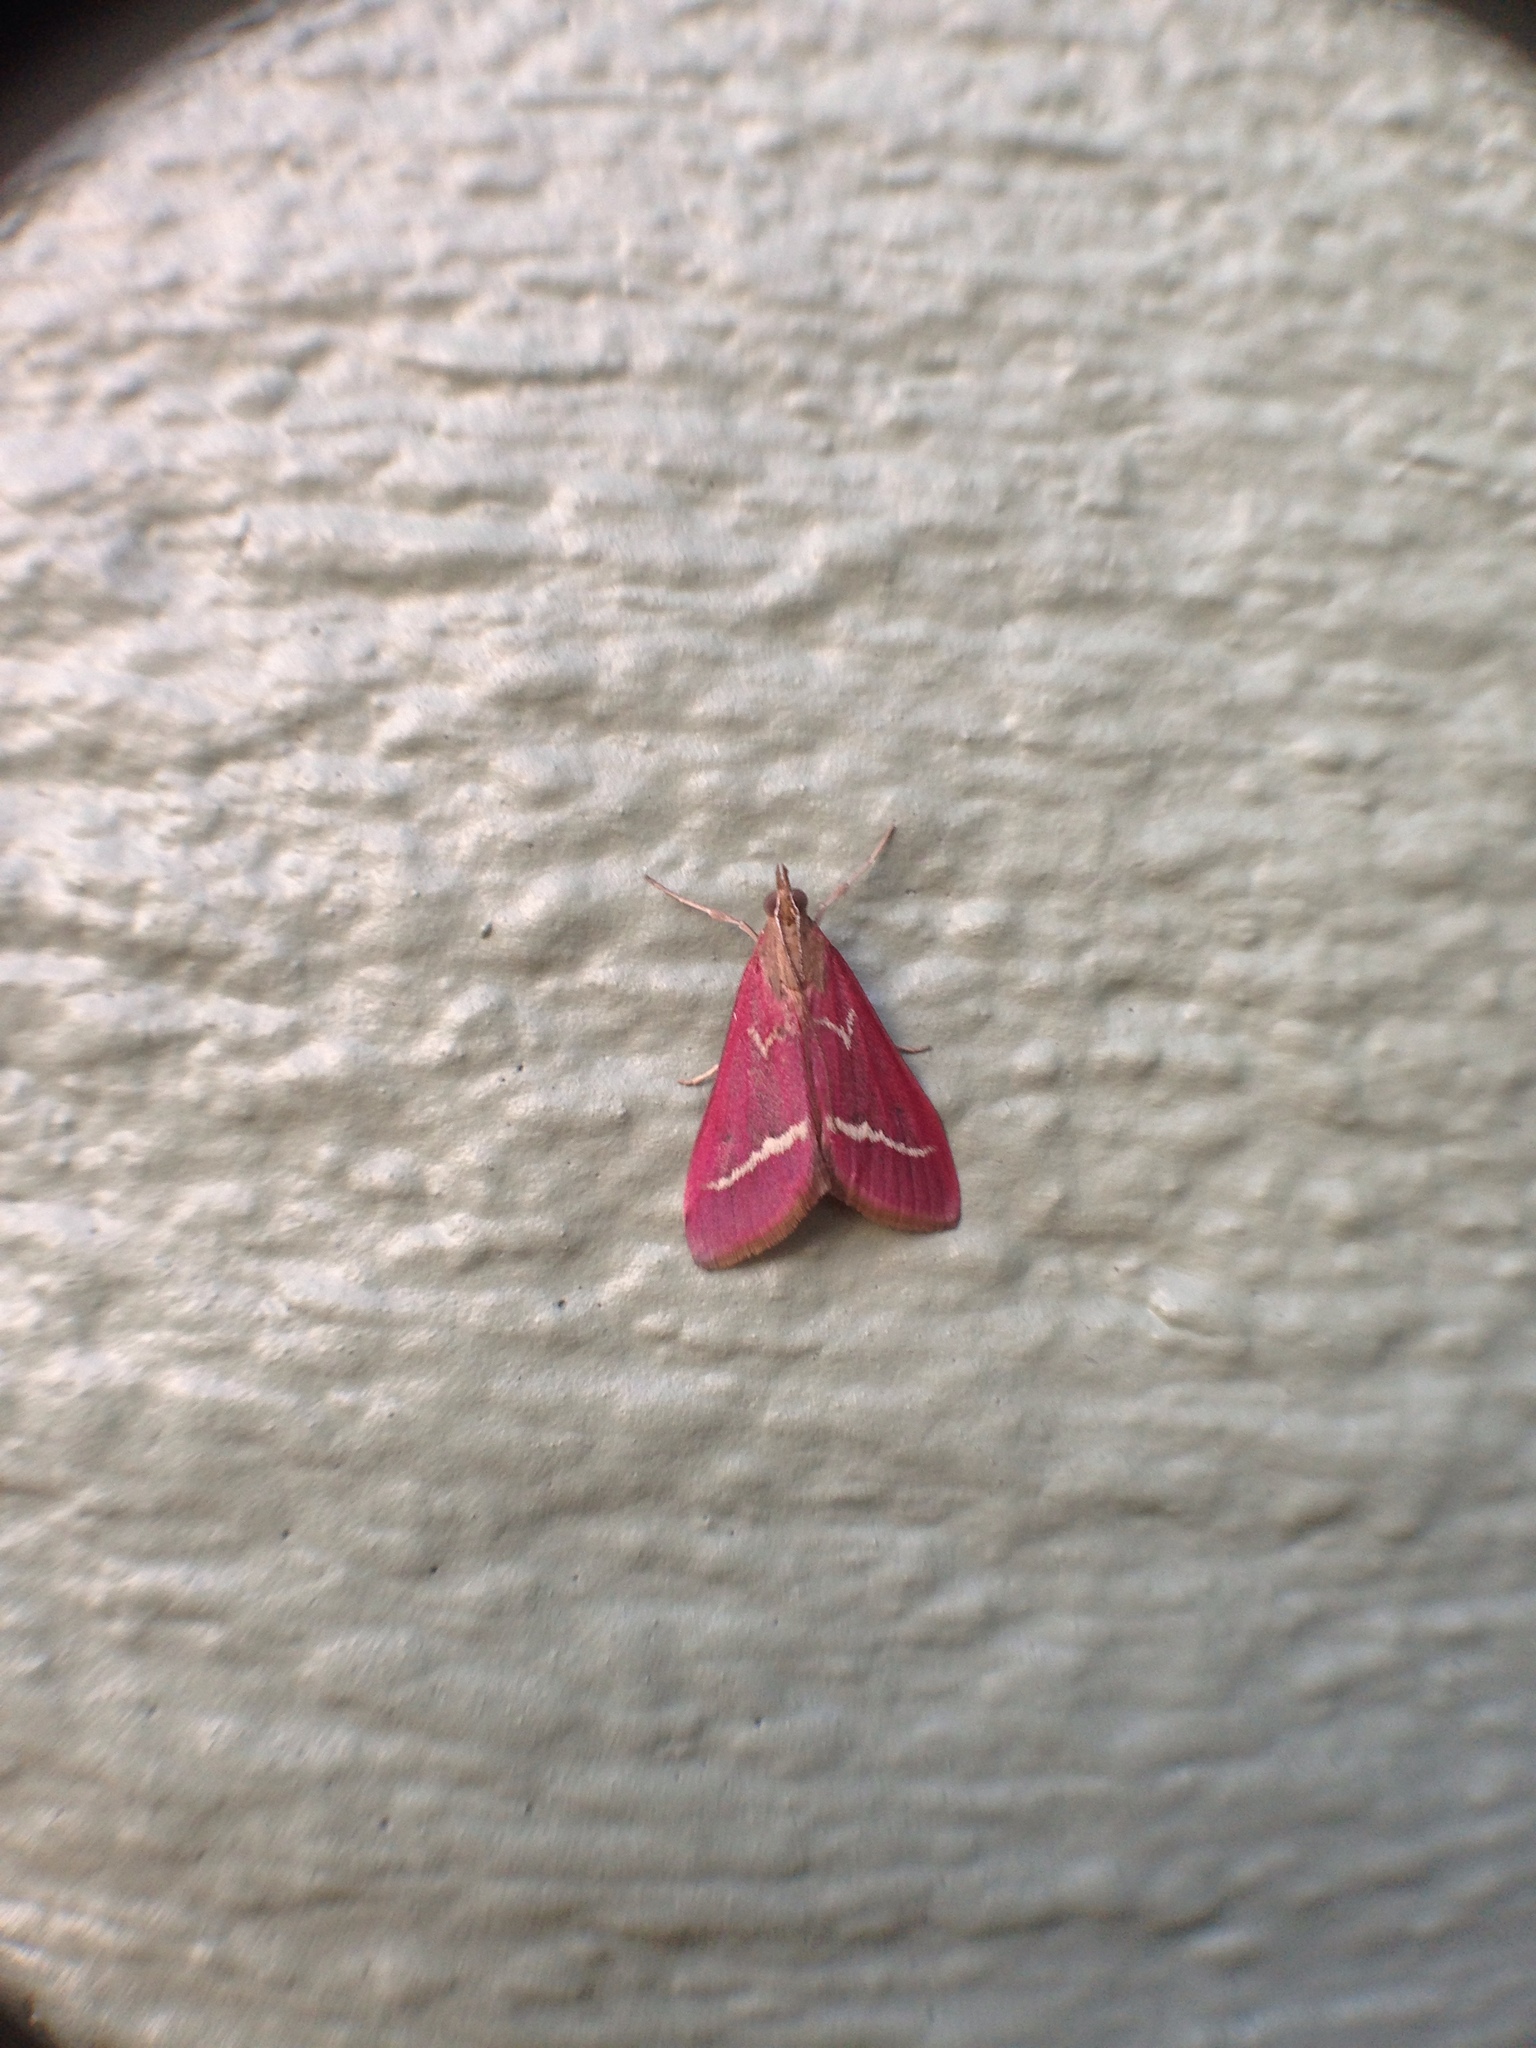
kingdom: Animalia
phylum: Arthropoda
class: Insecta
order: Lepidoptera
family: Crambidae
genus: Pyrausta
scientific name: Pyrausta volupialis
